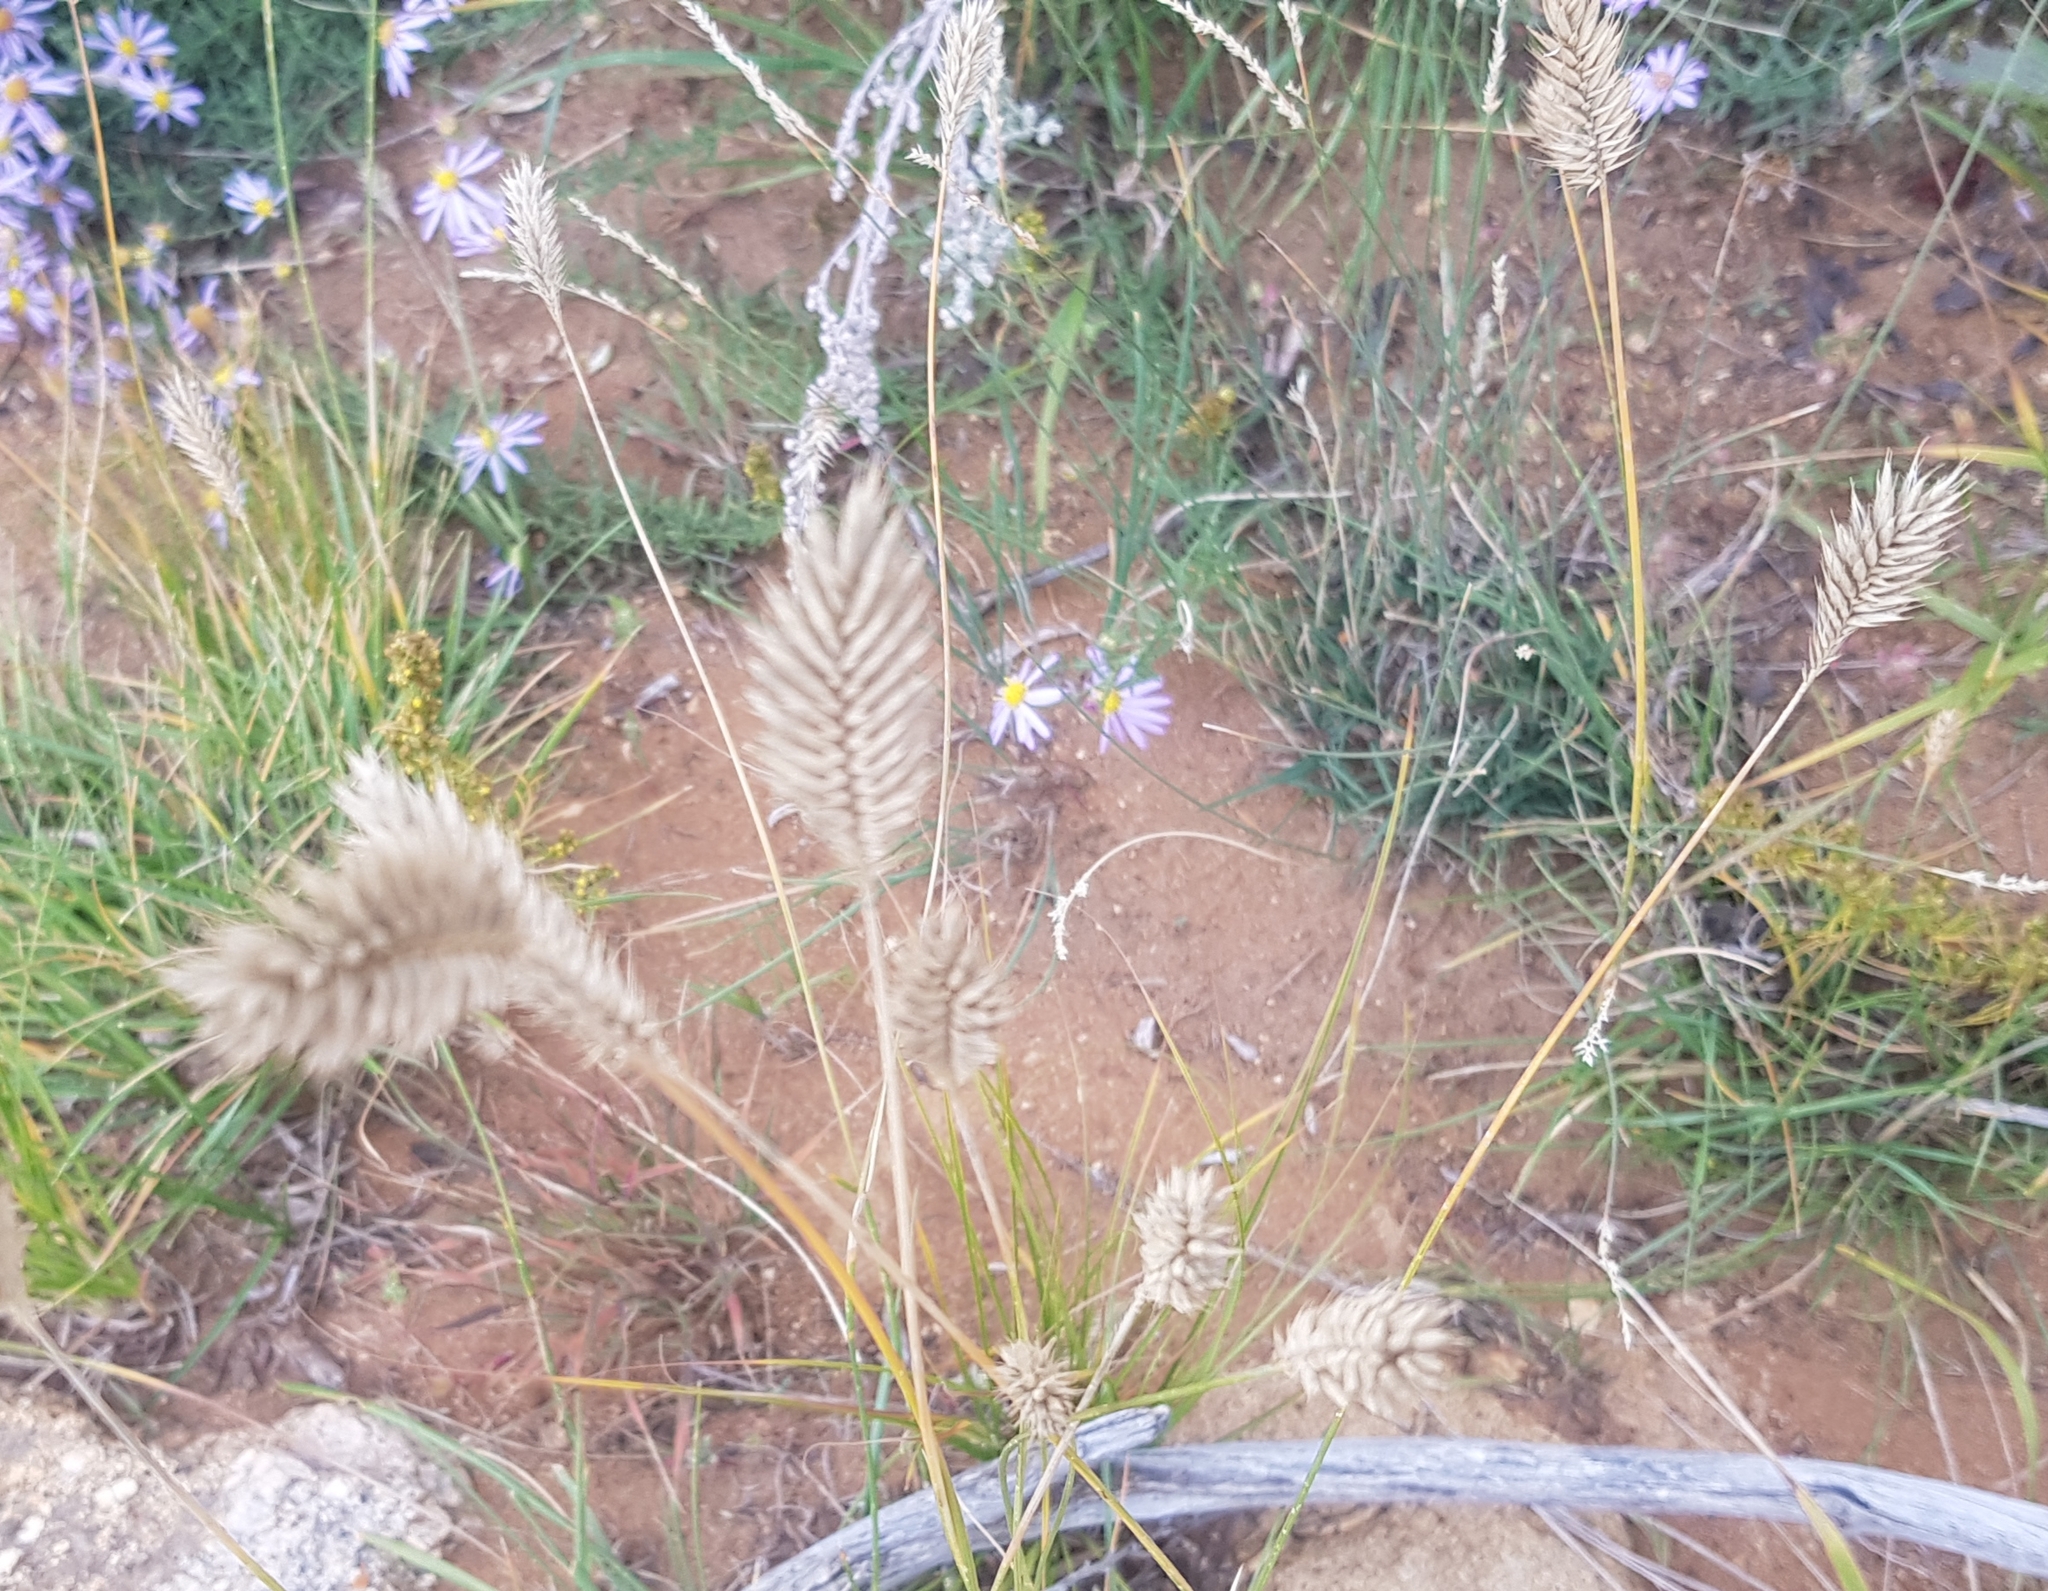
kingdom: Plantae
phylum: Tracheophyta
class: Liliopsida
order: Poales
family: Poaceae
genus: Agropyron
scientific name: Agropyron cristatum
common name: Crested wheatgrass
